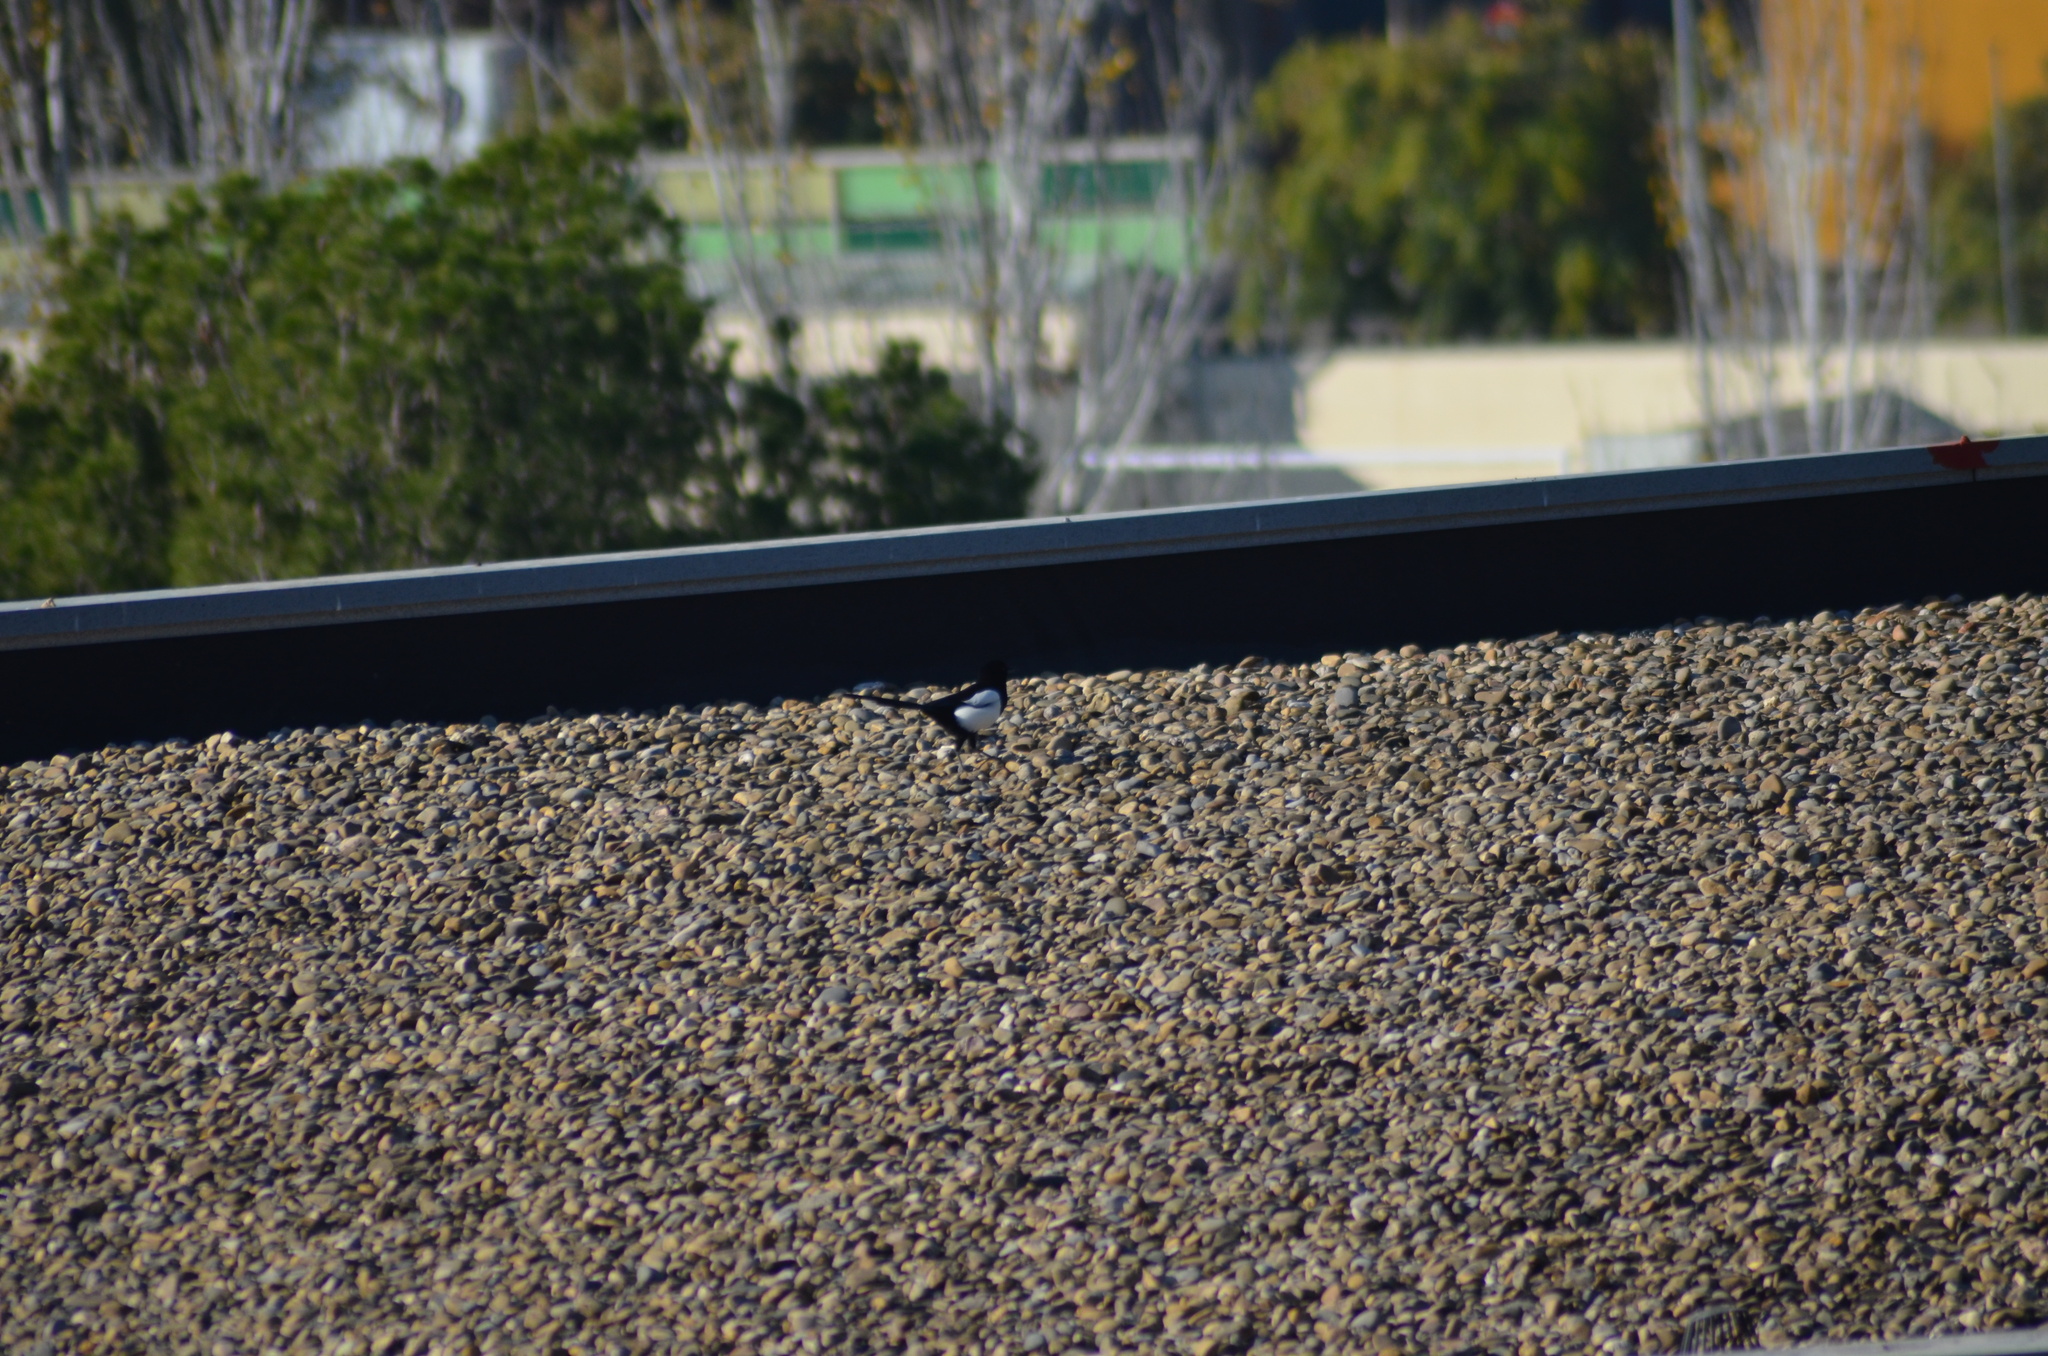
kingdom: Animalia
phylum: Chordata
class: Aves
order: Passeriformes
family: Corvidae
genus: Pica
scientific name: Pica pica
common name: Eurasian magpie
